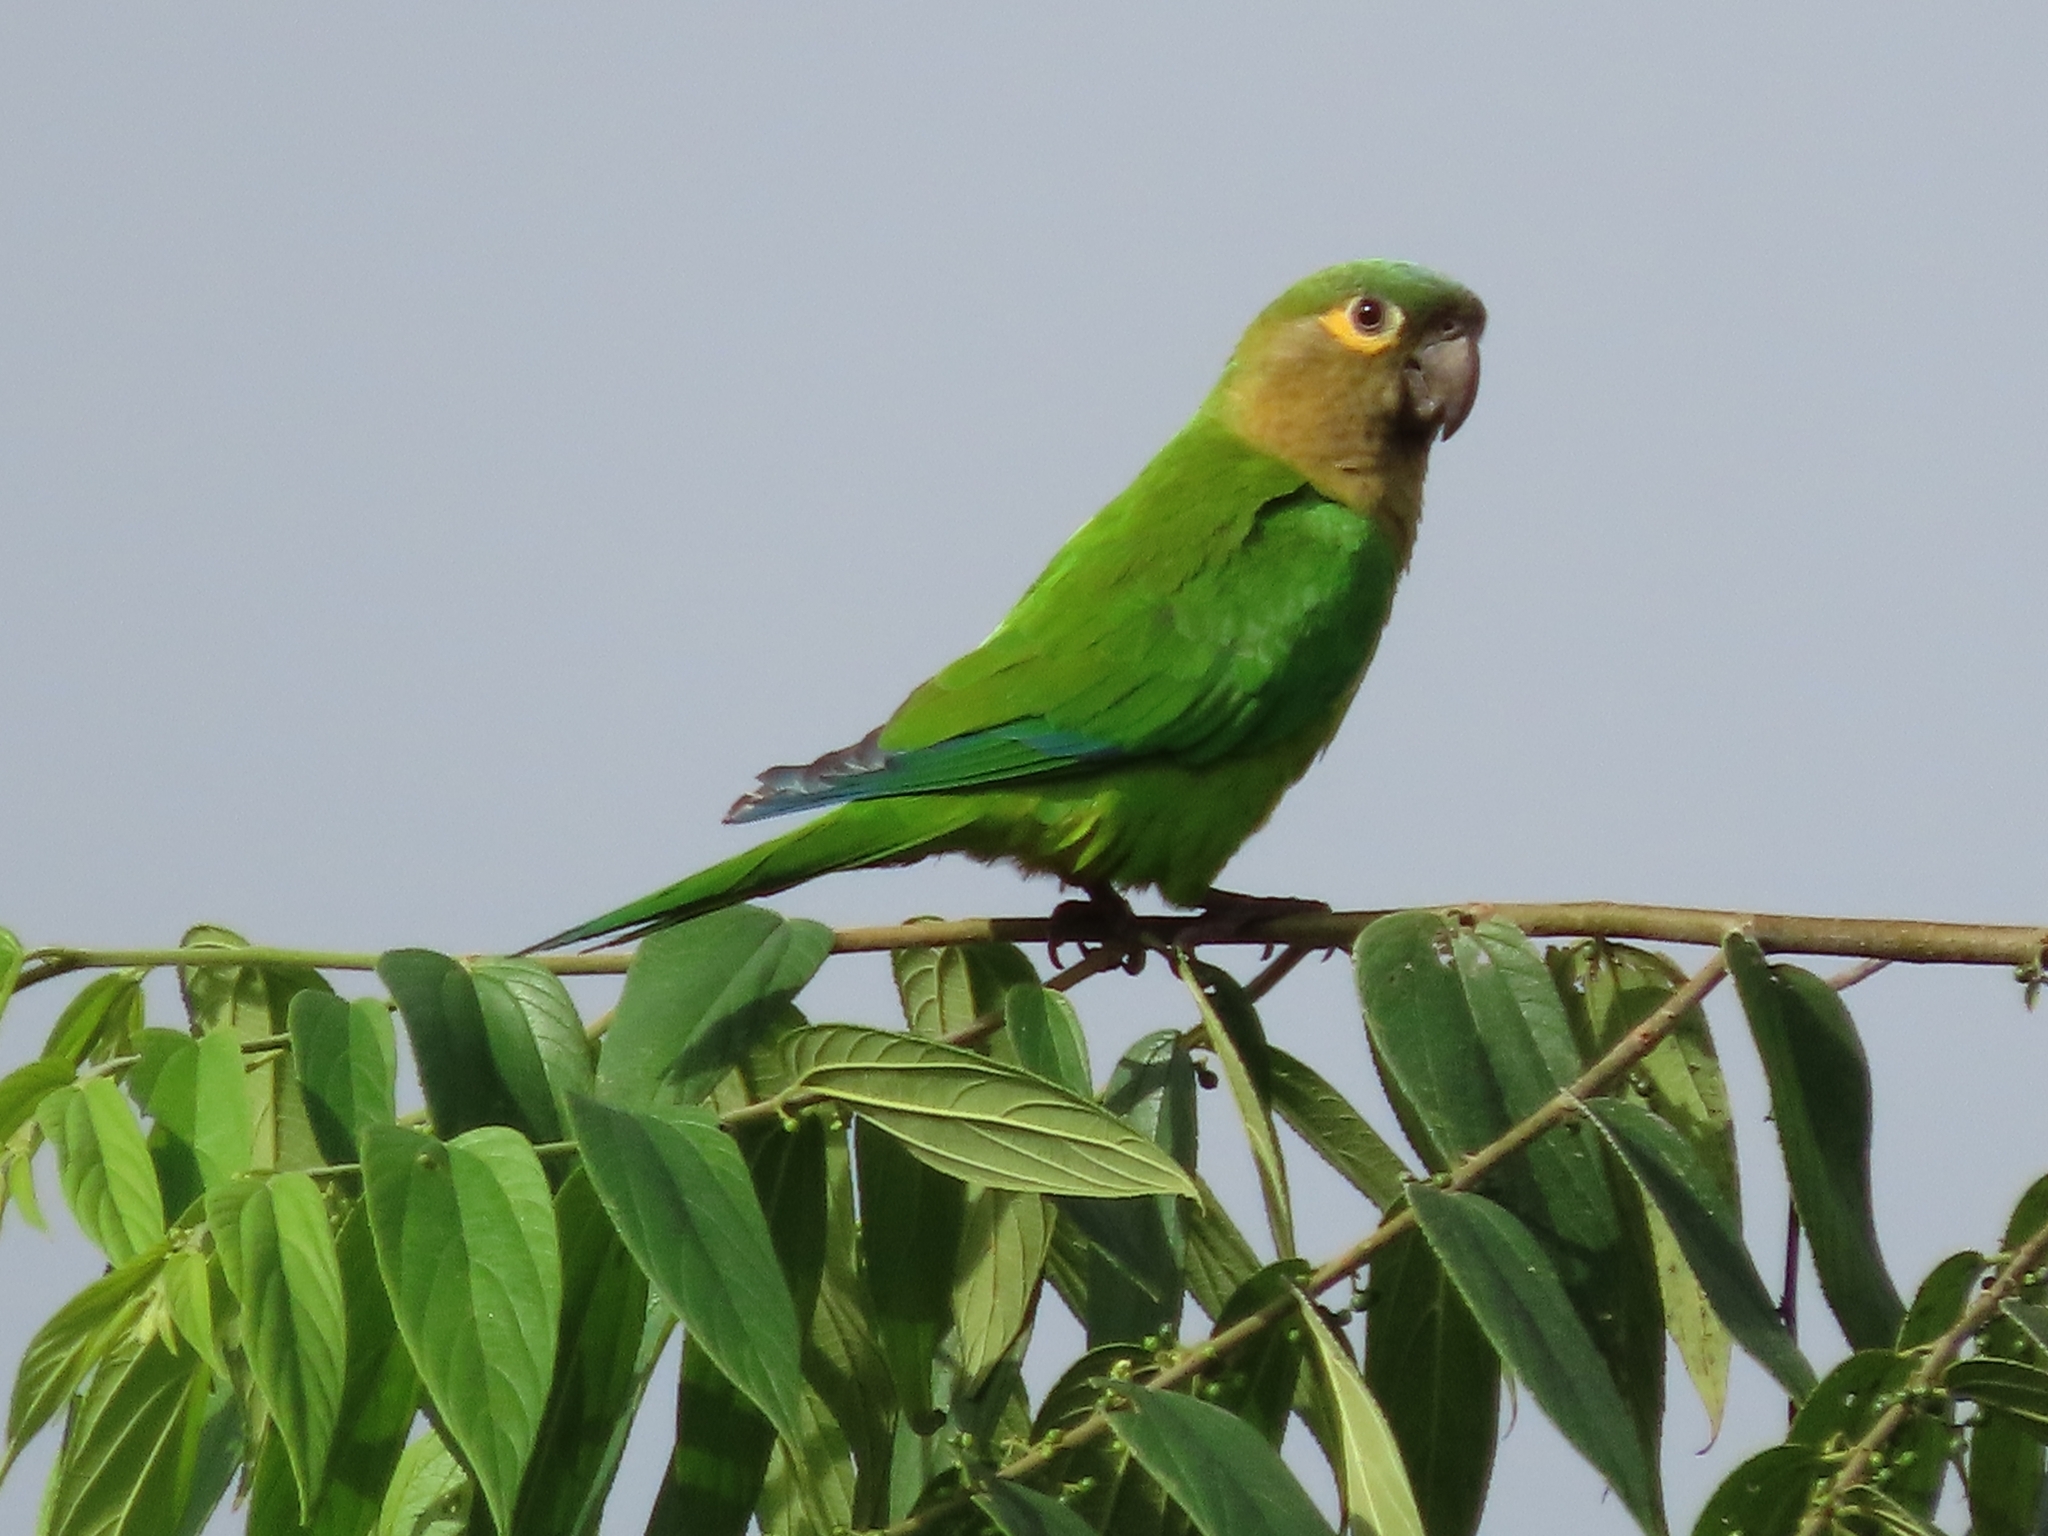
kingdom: Animalia
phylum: Chordata
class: Aves
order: Psittaciformes
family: Psittacidae
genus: Aratinga
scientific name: Aratinga pertinax
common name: Brown-throated parakeet
